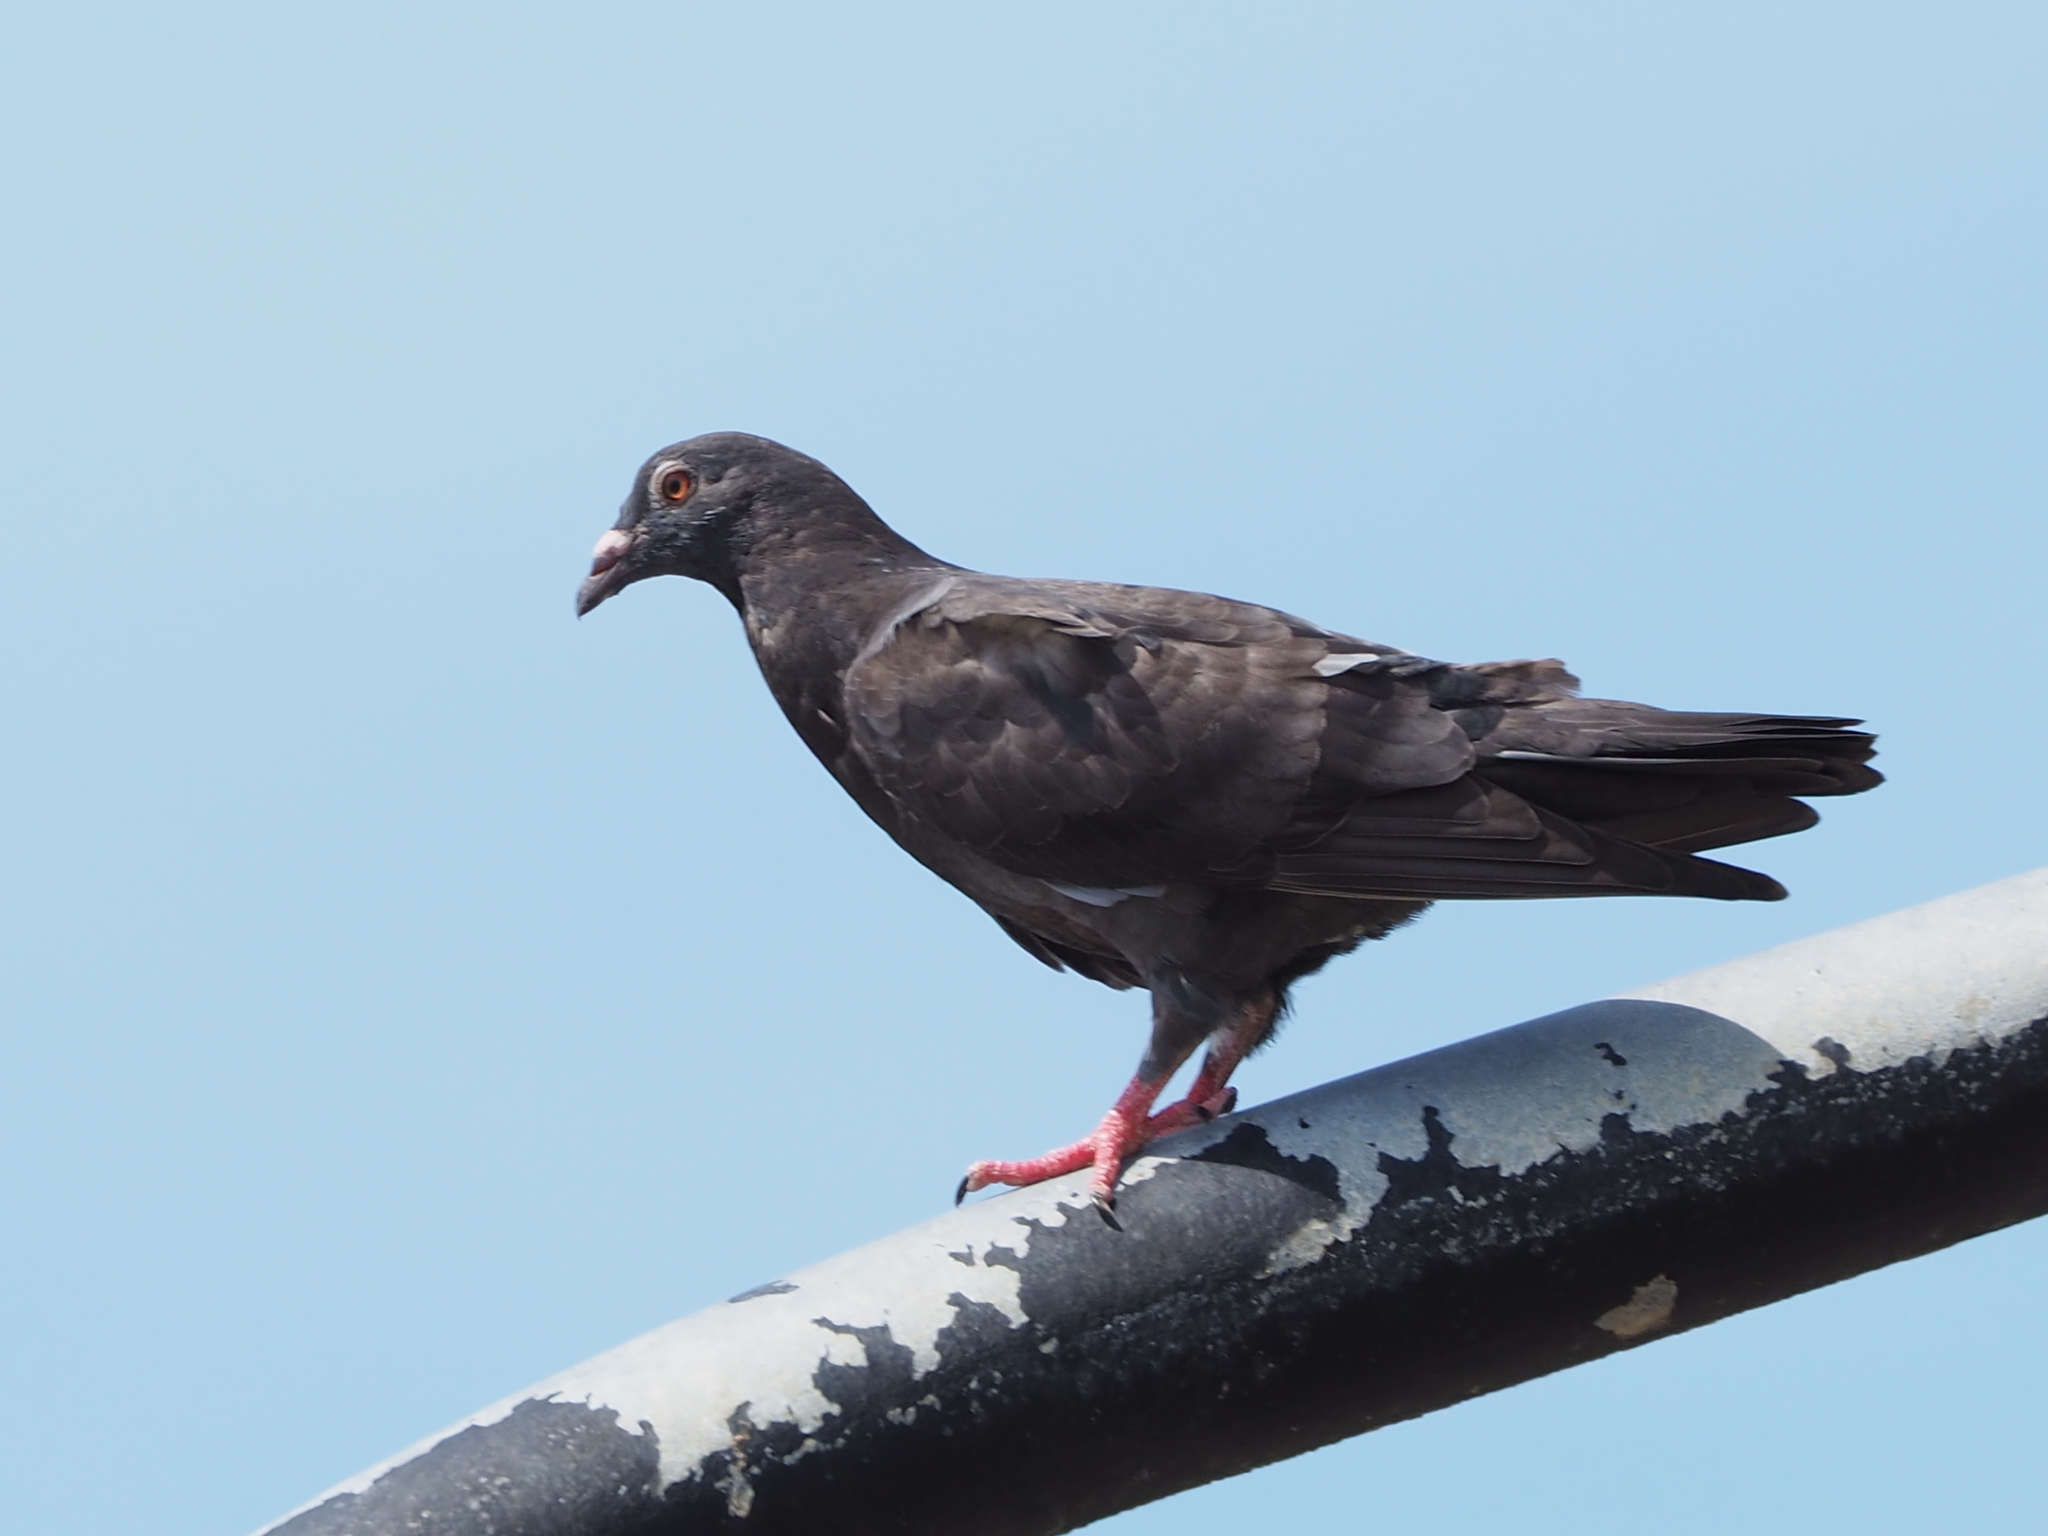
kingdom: Animalia
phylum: Chordata
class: Aves
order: Columbiformes
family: Columbidae
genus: Columba
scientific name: Columba livia
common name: Rock pigeon
